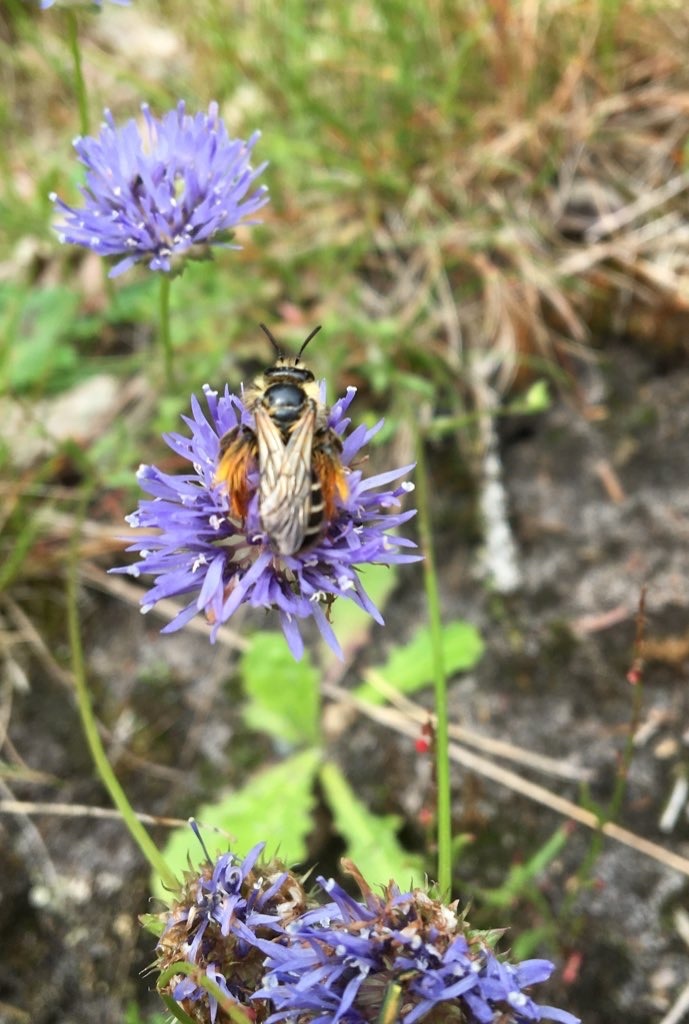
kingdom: Animalia
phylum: Arthropoda
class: Insecta
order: Hymenoptera
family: Melittidae
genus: Dasypoda
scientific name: Dasypoda hirtipes
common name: Pantaloon bee
